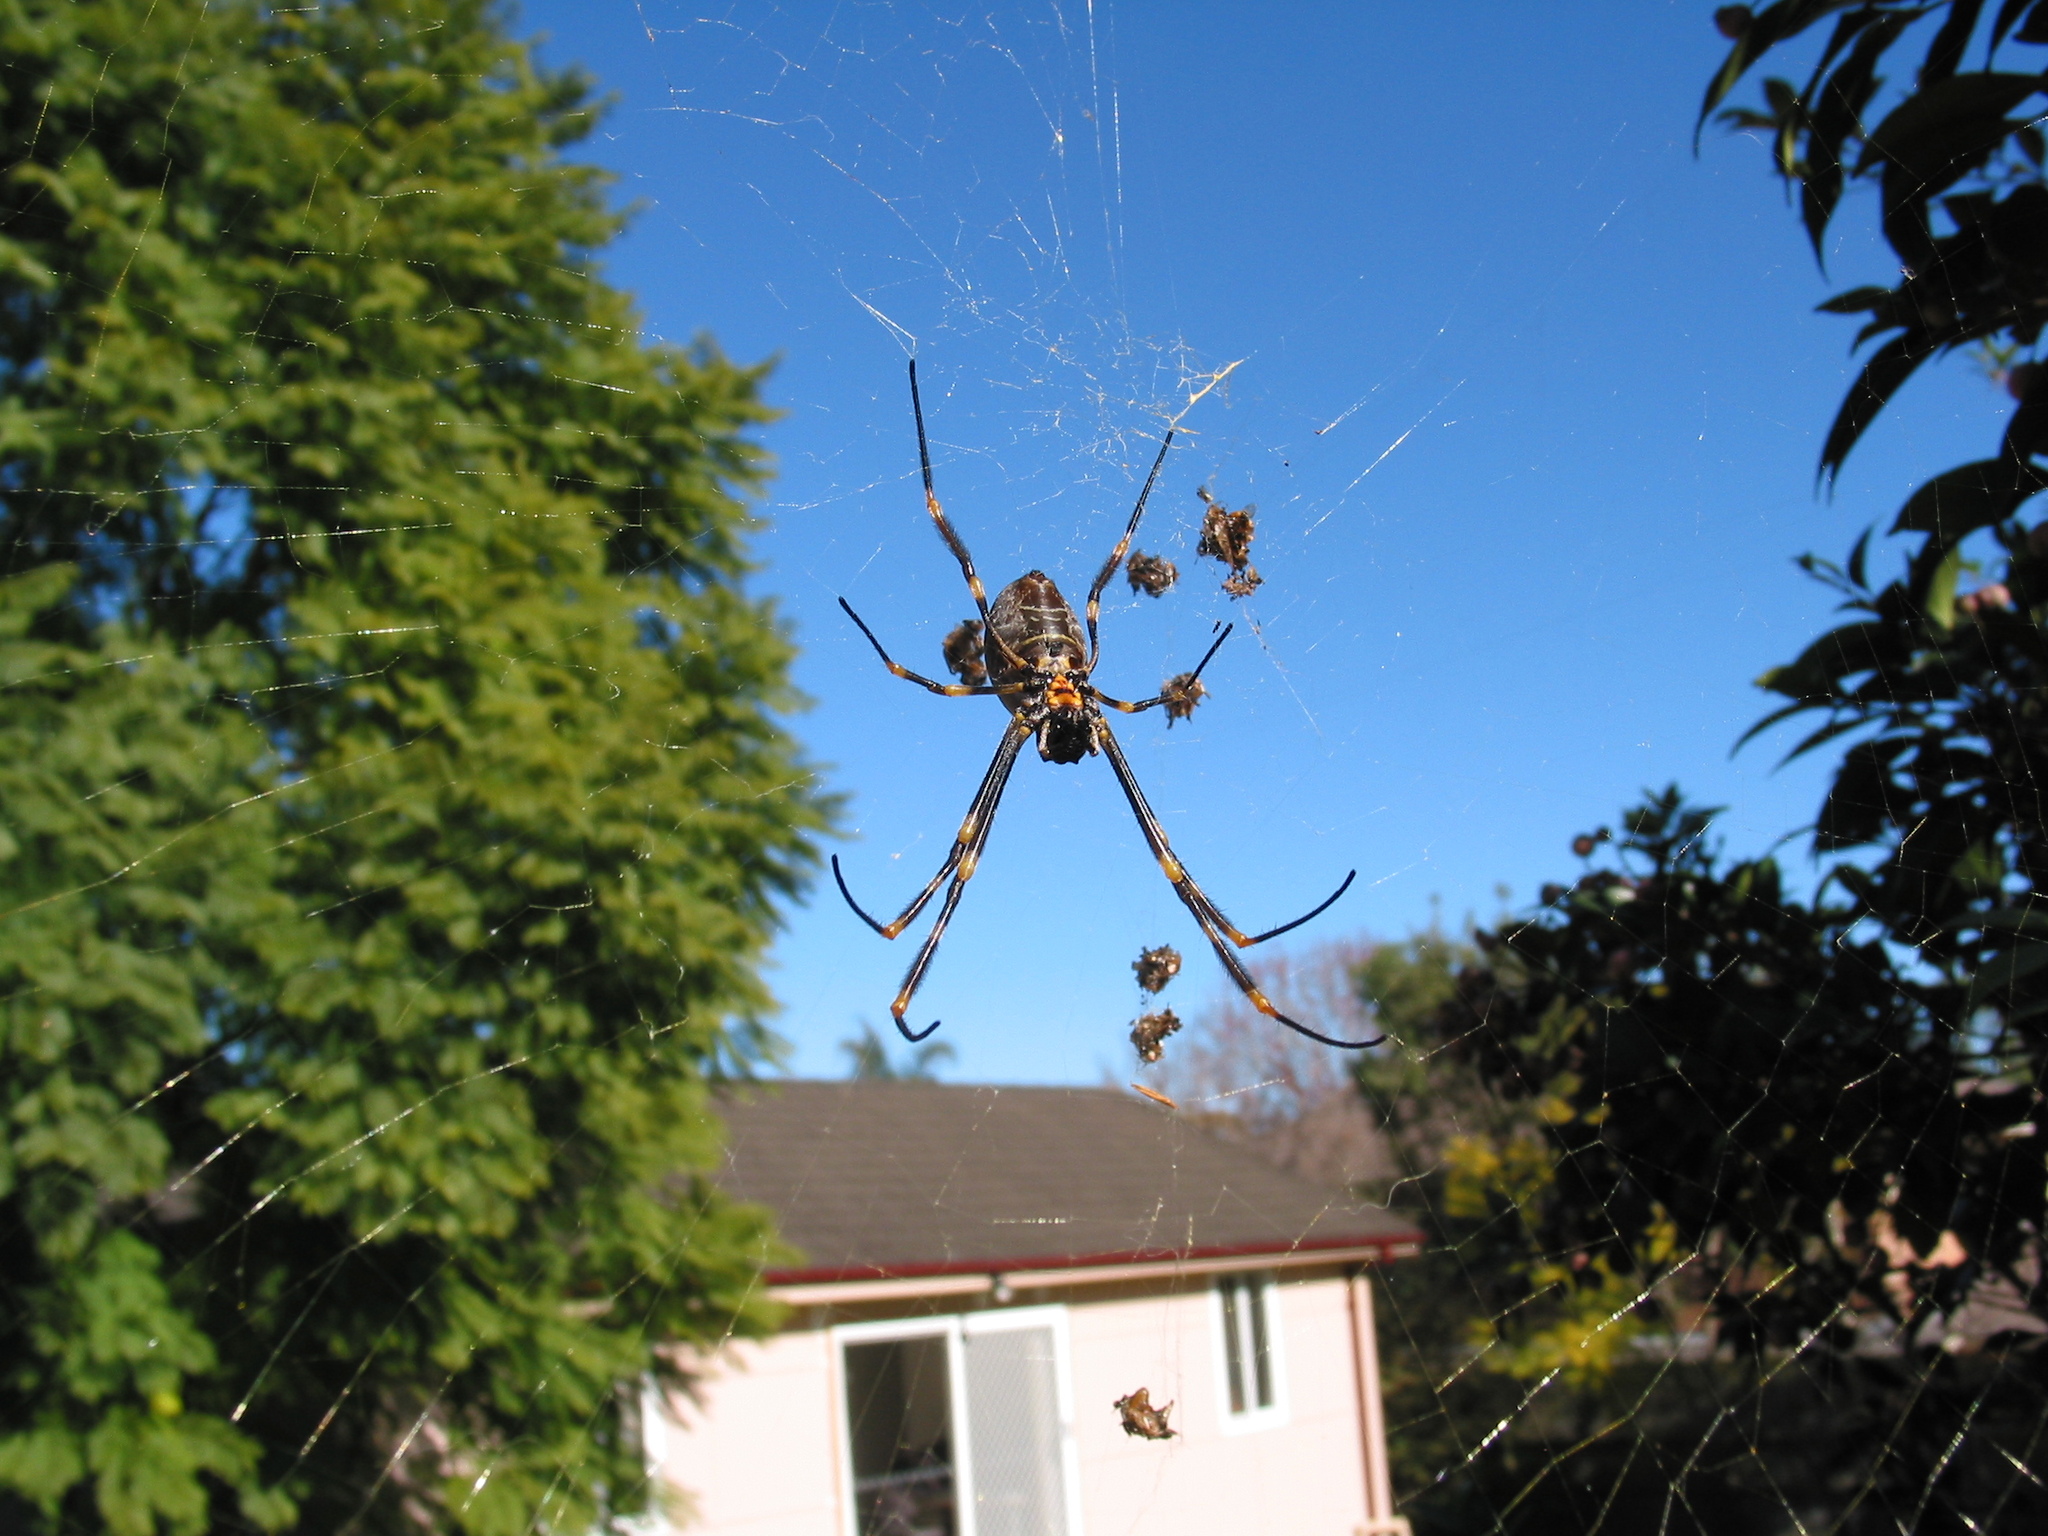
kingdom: Animalia
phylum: Arthropoda
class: Arachnida
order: Araneae
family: Araneidae
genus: Trichonephila
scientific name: Trichonephila plumipes
